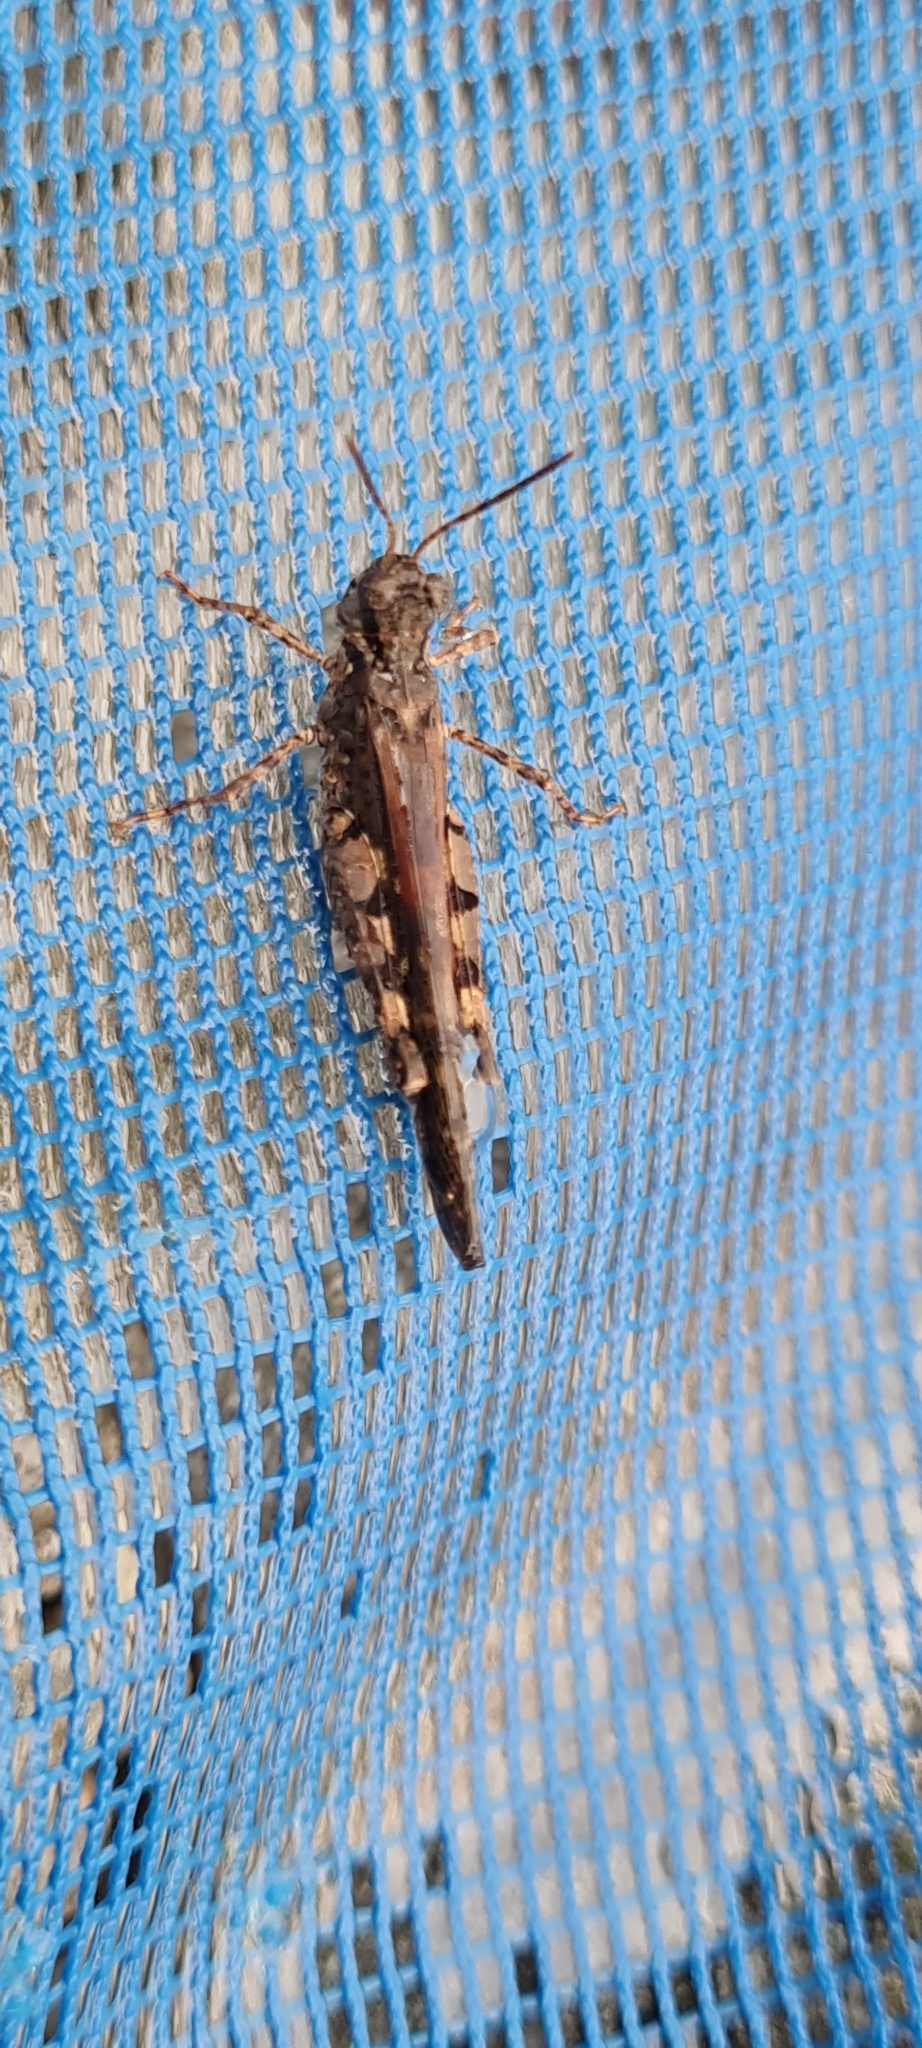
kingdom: Animalia
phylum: Arthropoda
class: Insecta
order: Orthoptera
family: Acrididae
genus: Acrotylus
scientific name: Acrotylus patruelis
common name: Slender burrowing grasshopper
